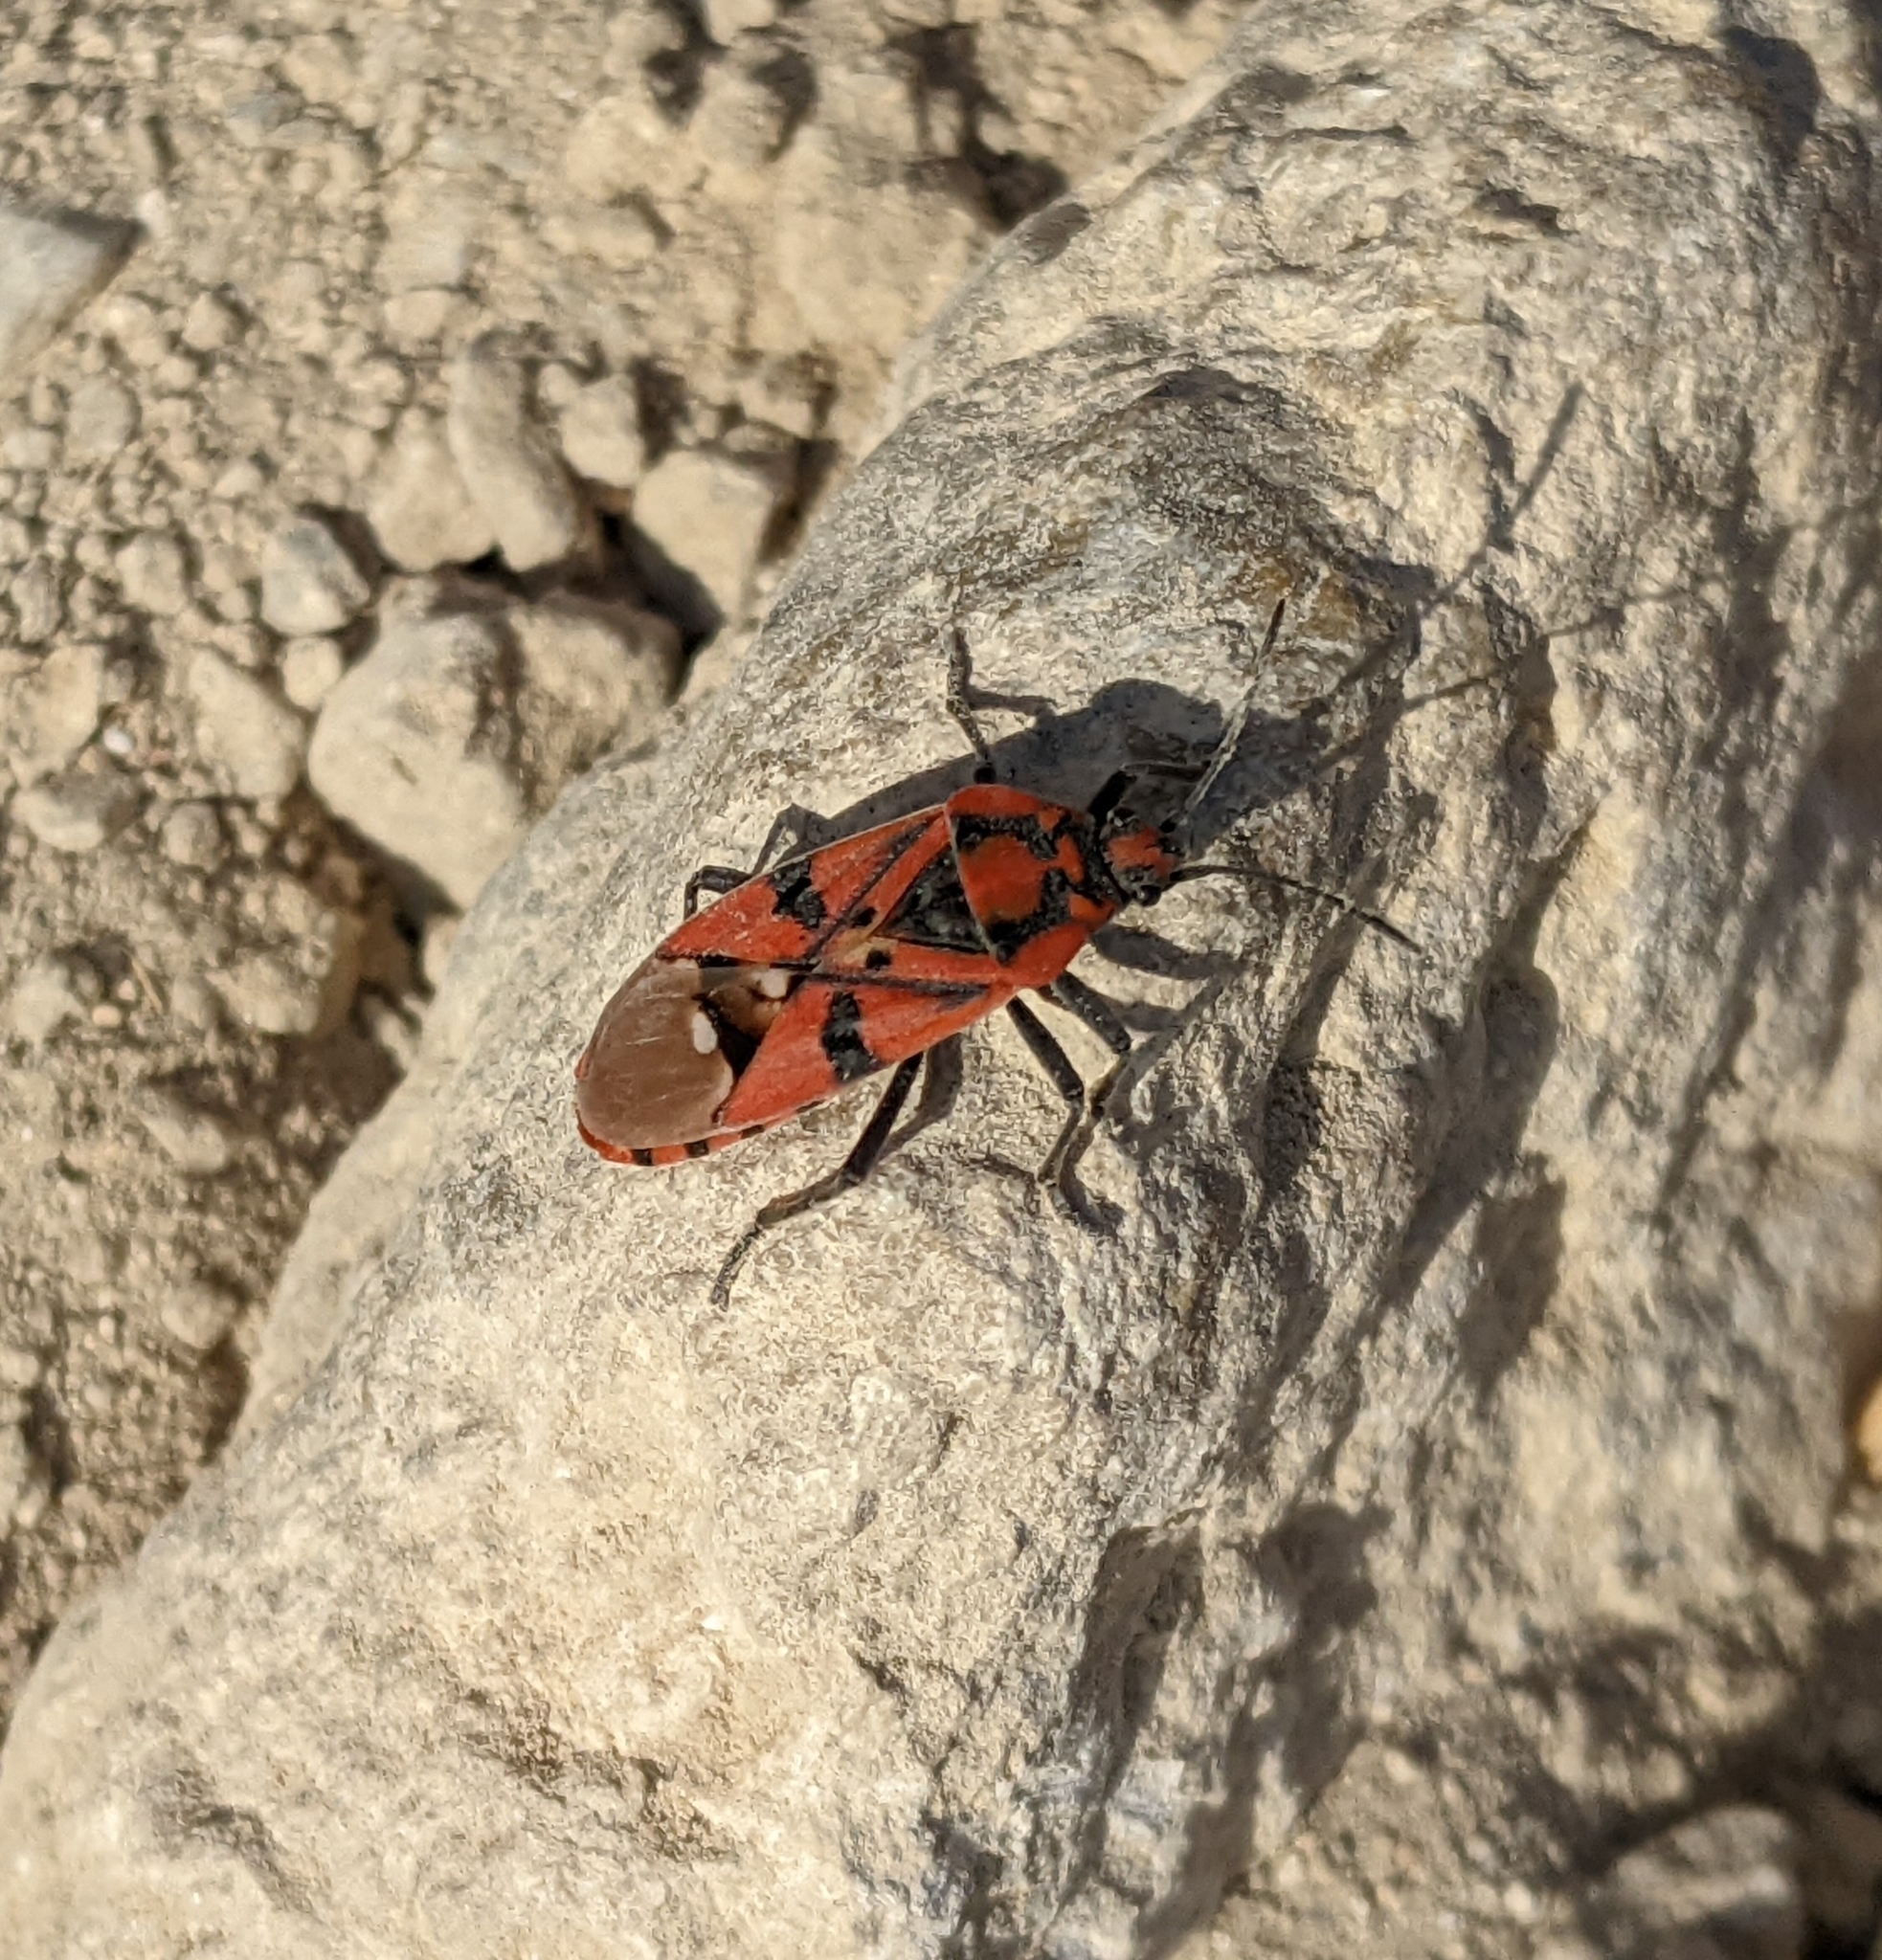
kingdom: Animalia
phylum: Arthropoda
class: Insecta
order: Hemiptera
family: Lygaeidae
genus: Spilostethus
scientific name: Spilostethus pandurus
